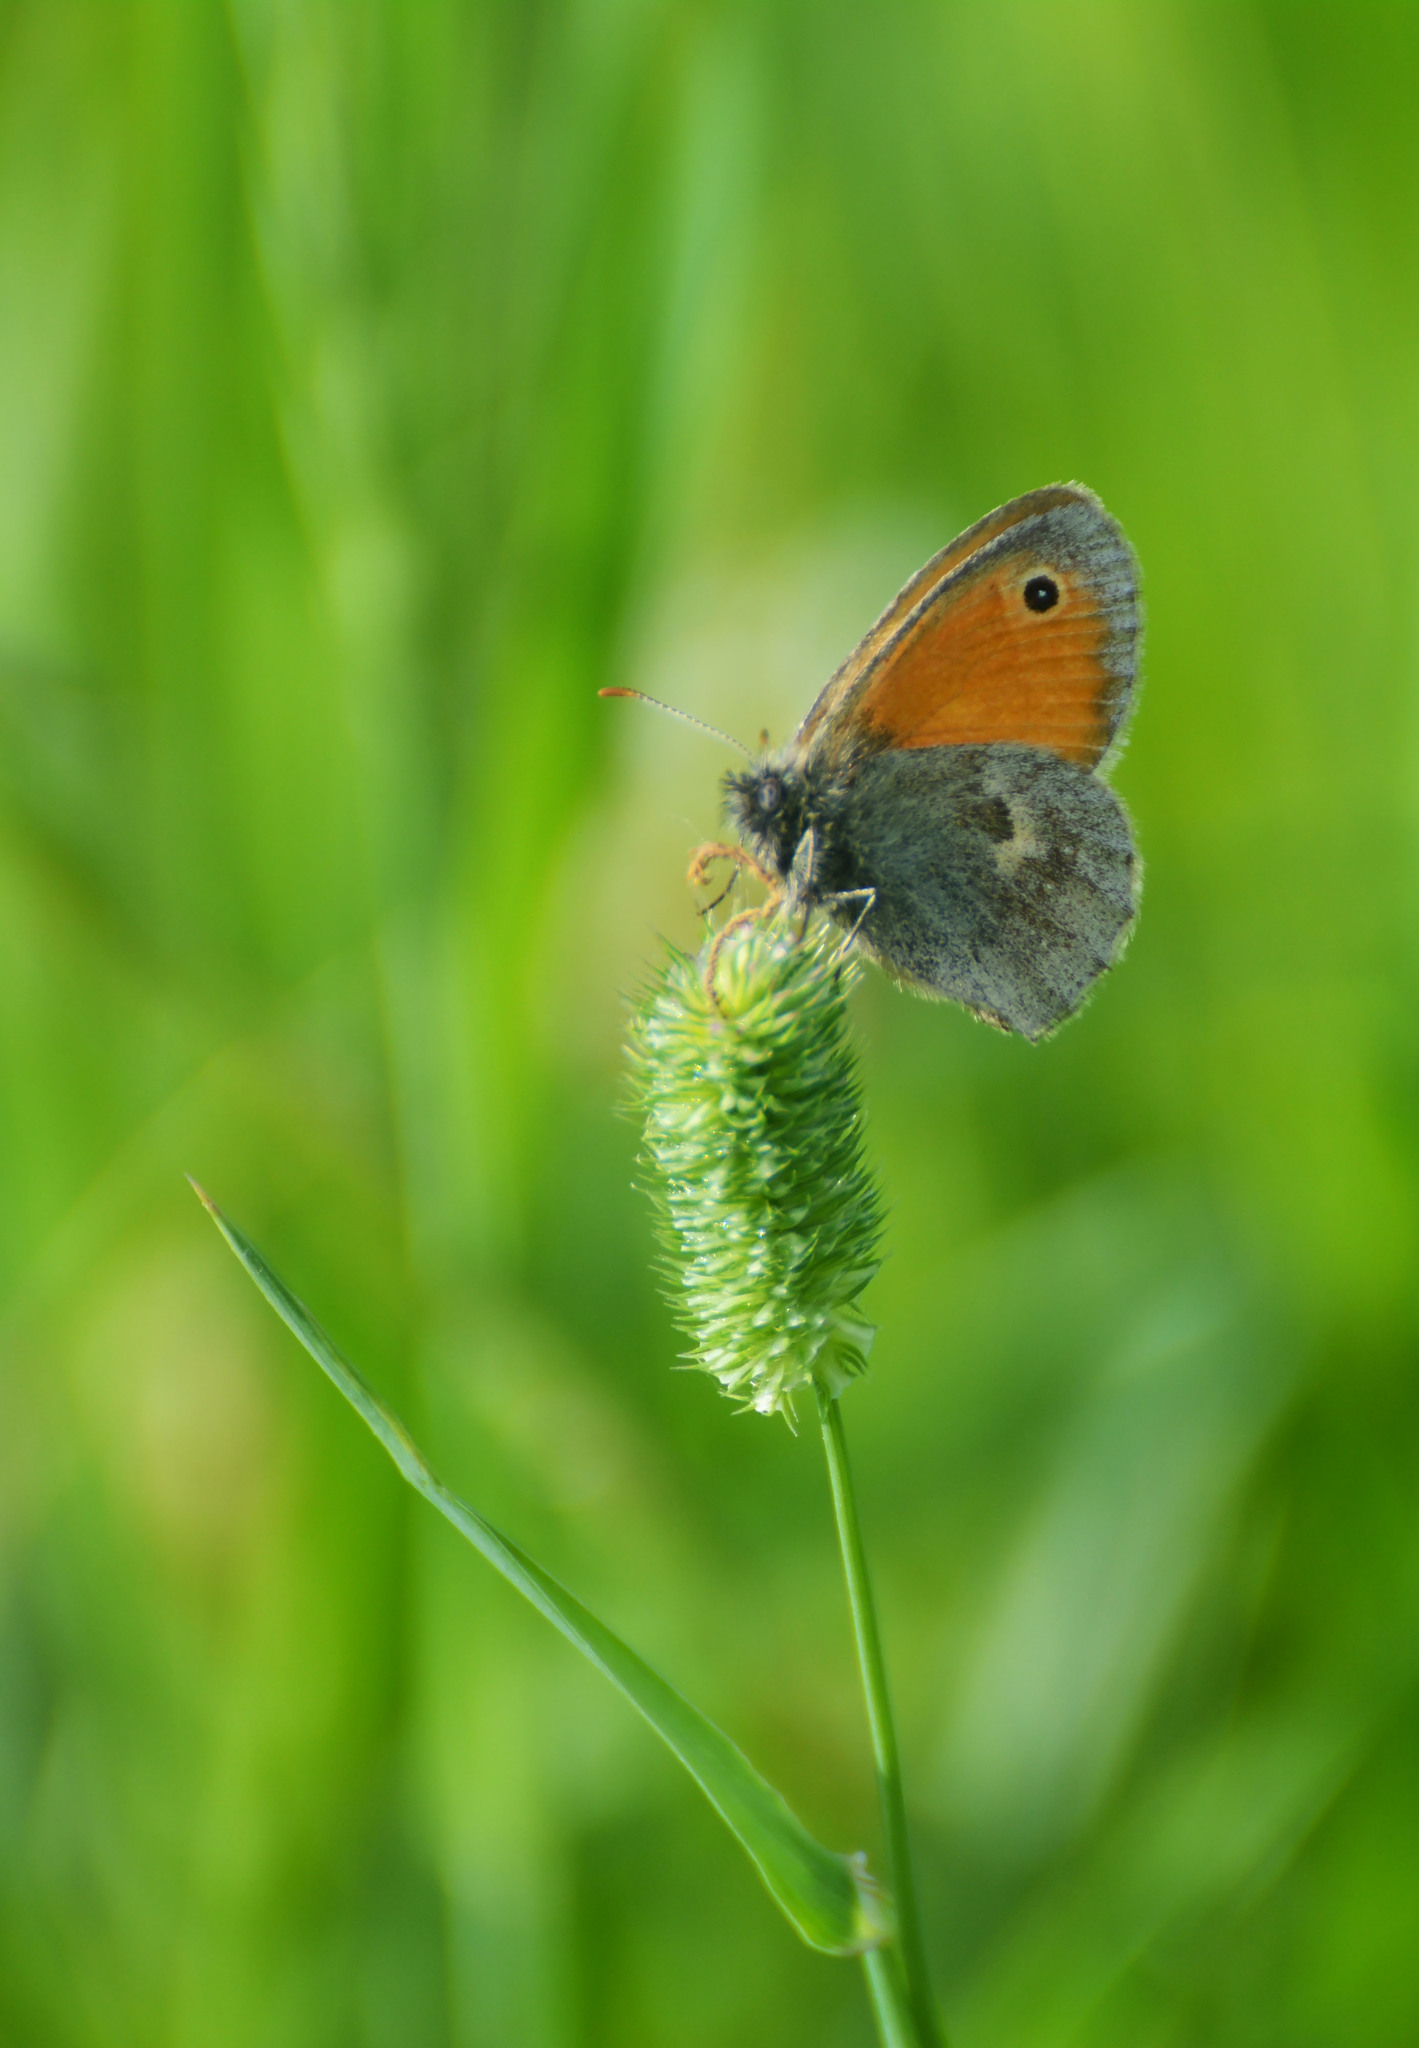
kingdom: Animalia
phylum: Arthropoda
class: Insecta
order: Lepidoptera
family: Nymphalidae
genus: Coenonympha
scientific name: Coenonympha pamphilus
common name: Small heath
